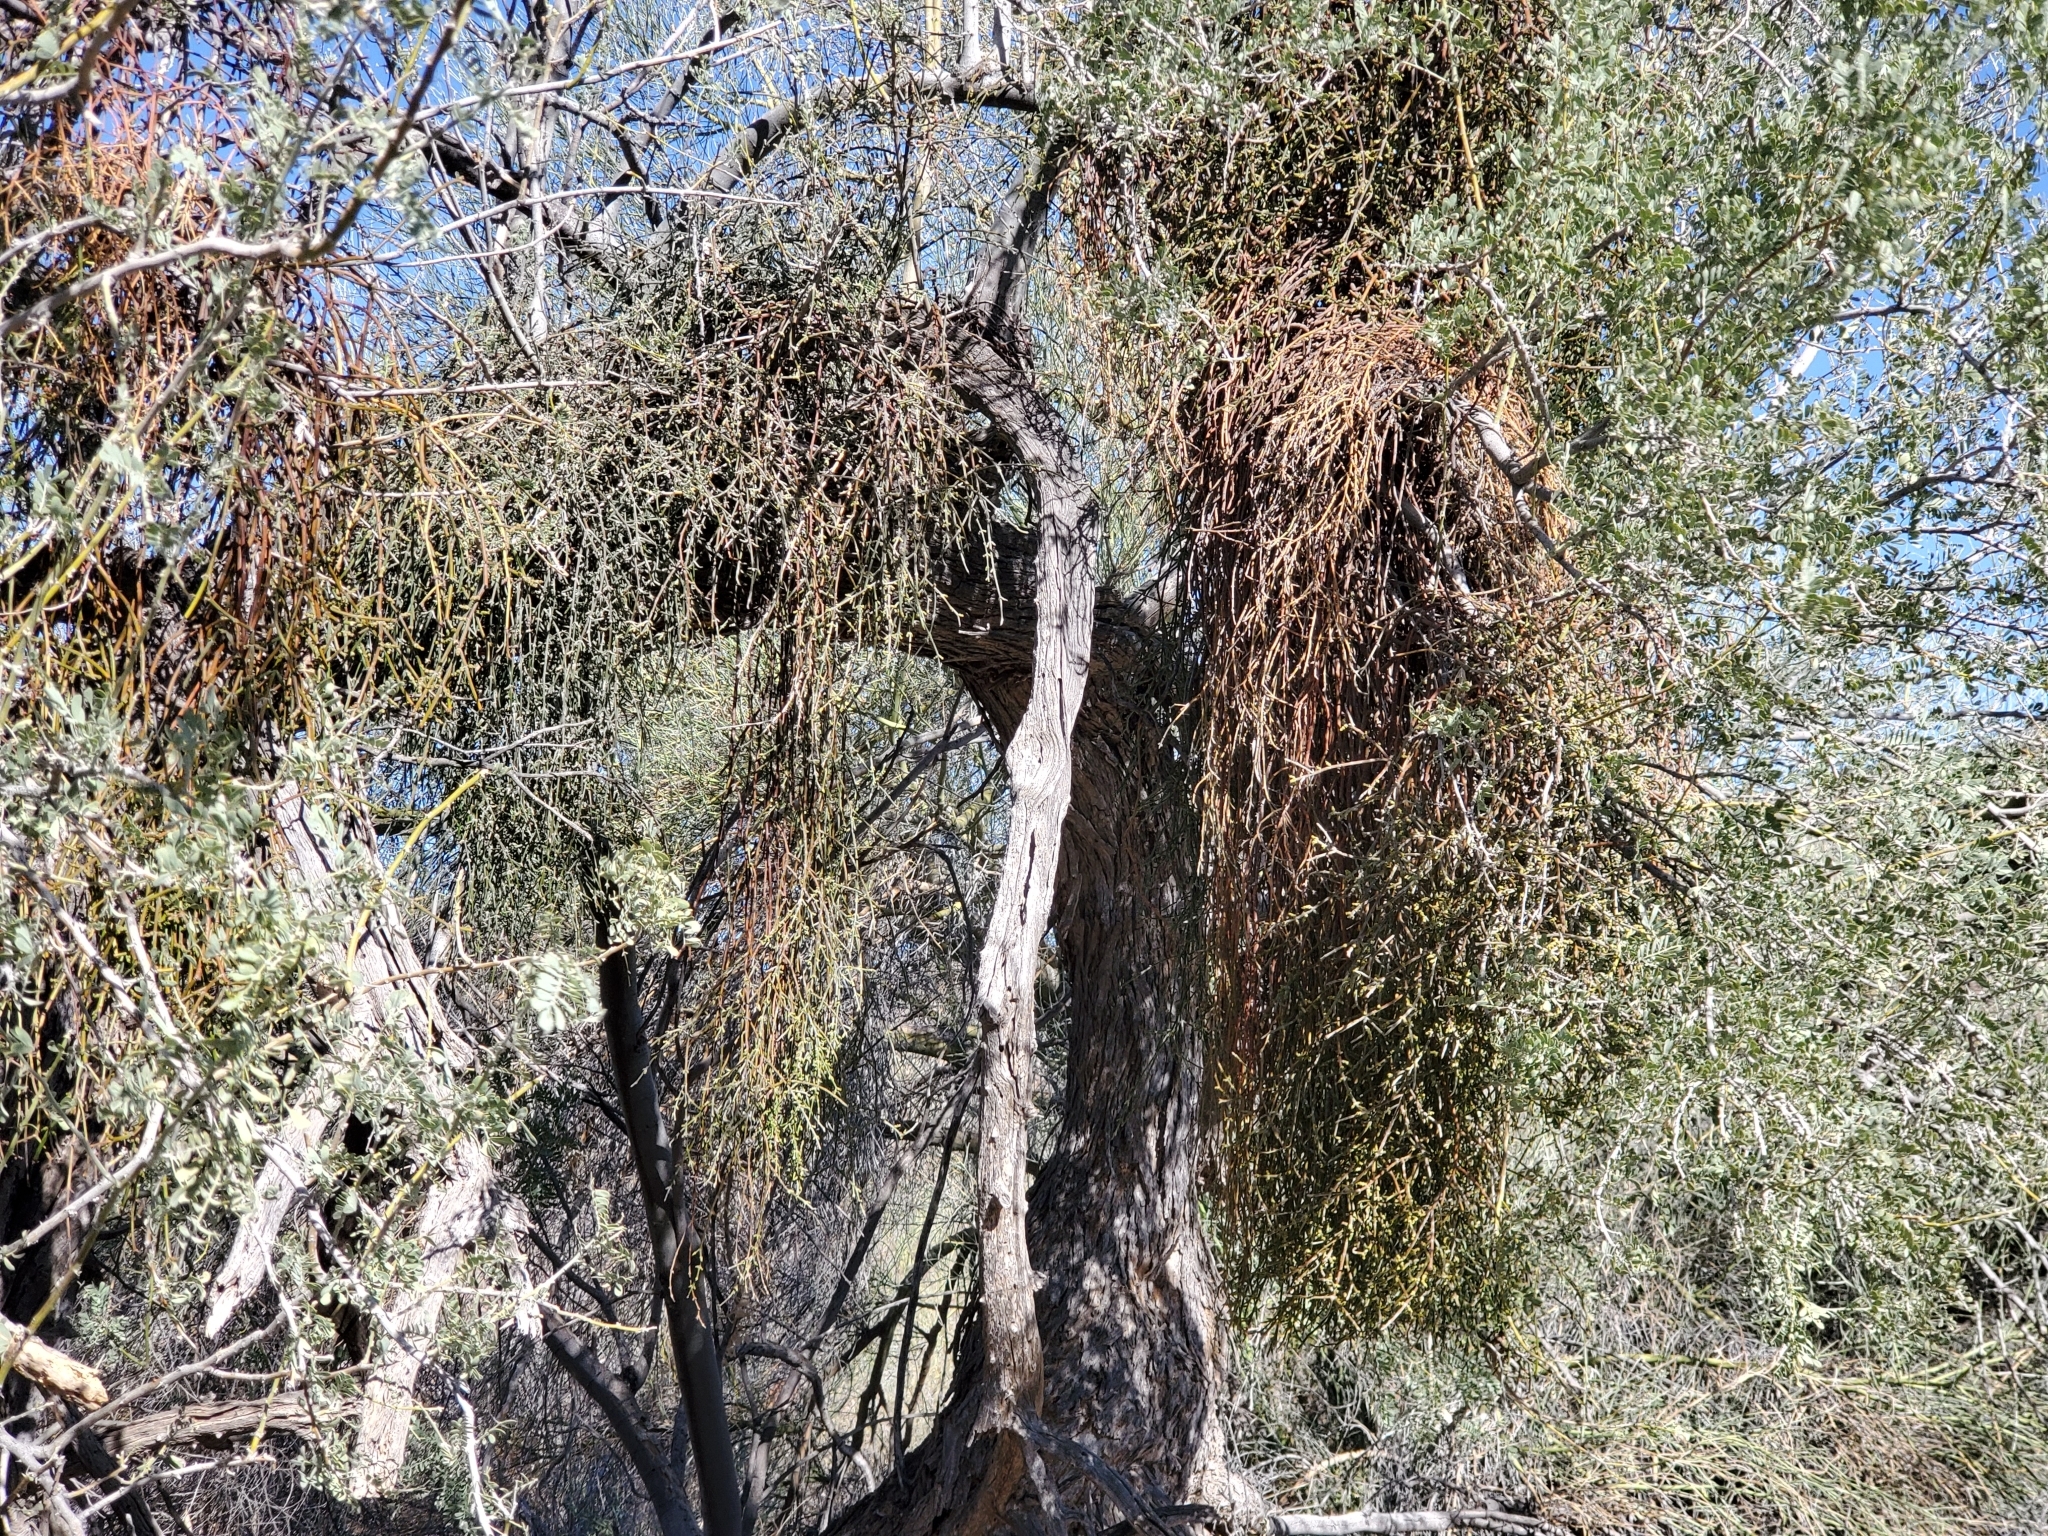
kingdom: Plantae
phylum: Tracheophyta
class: Magnoliopsida
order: Santalales
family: Viscaceae
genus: Phoradendron
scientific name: Phoradendron californicum
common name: Acacia mistletoe
